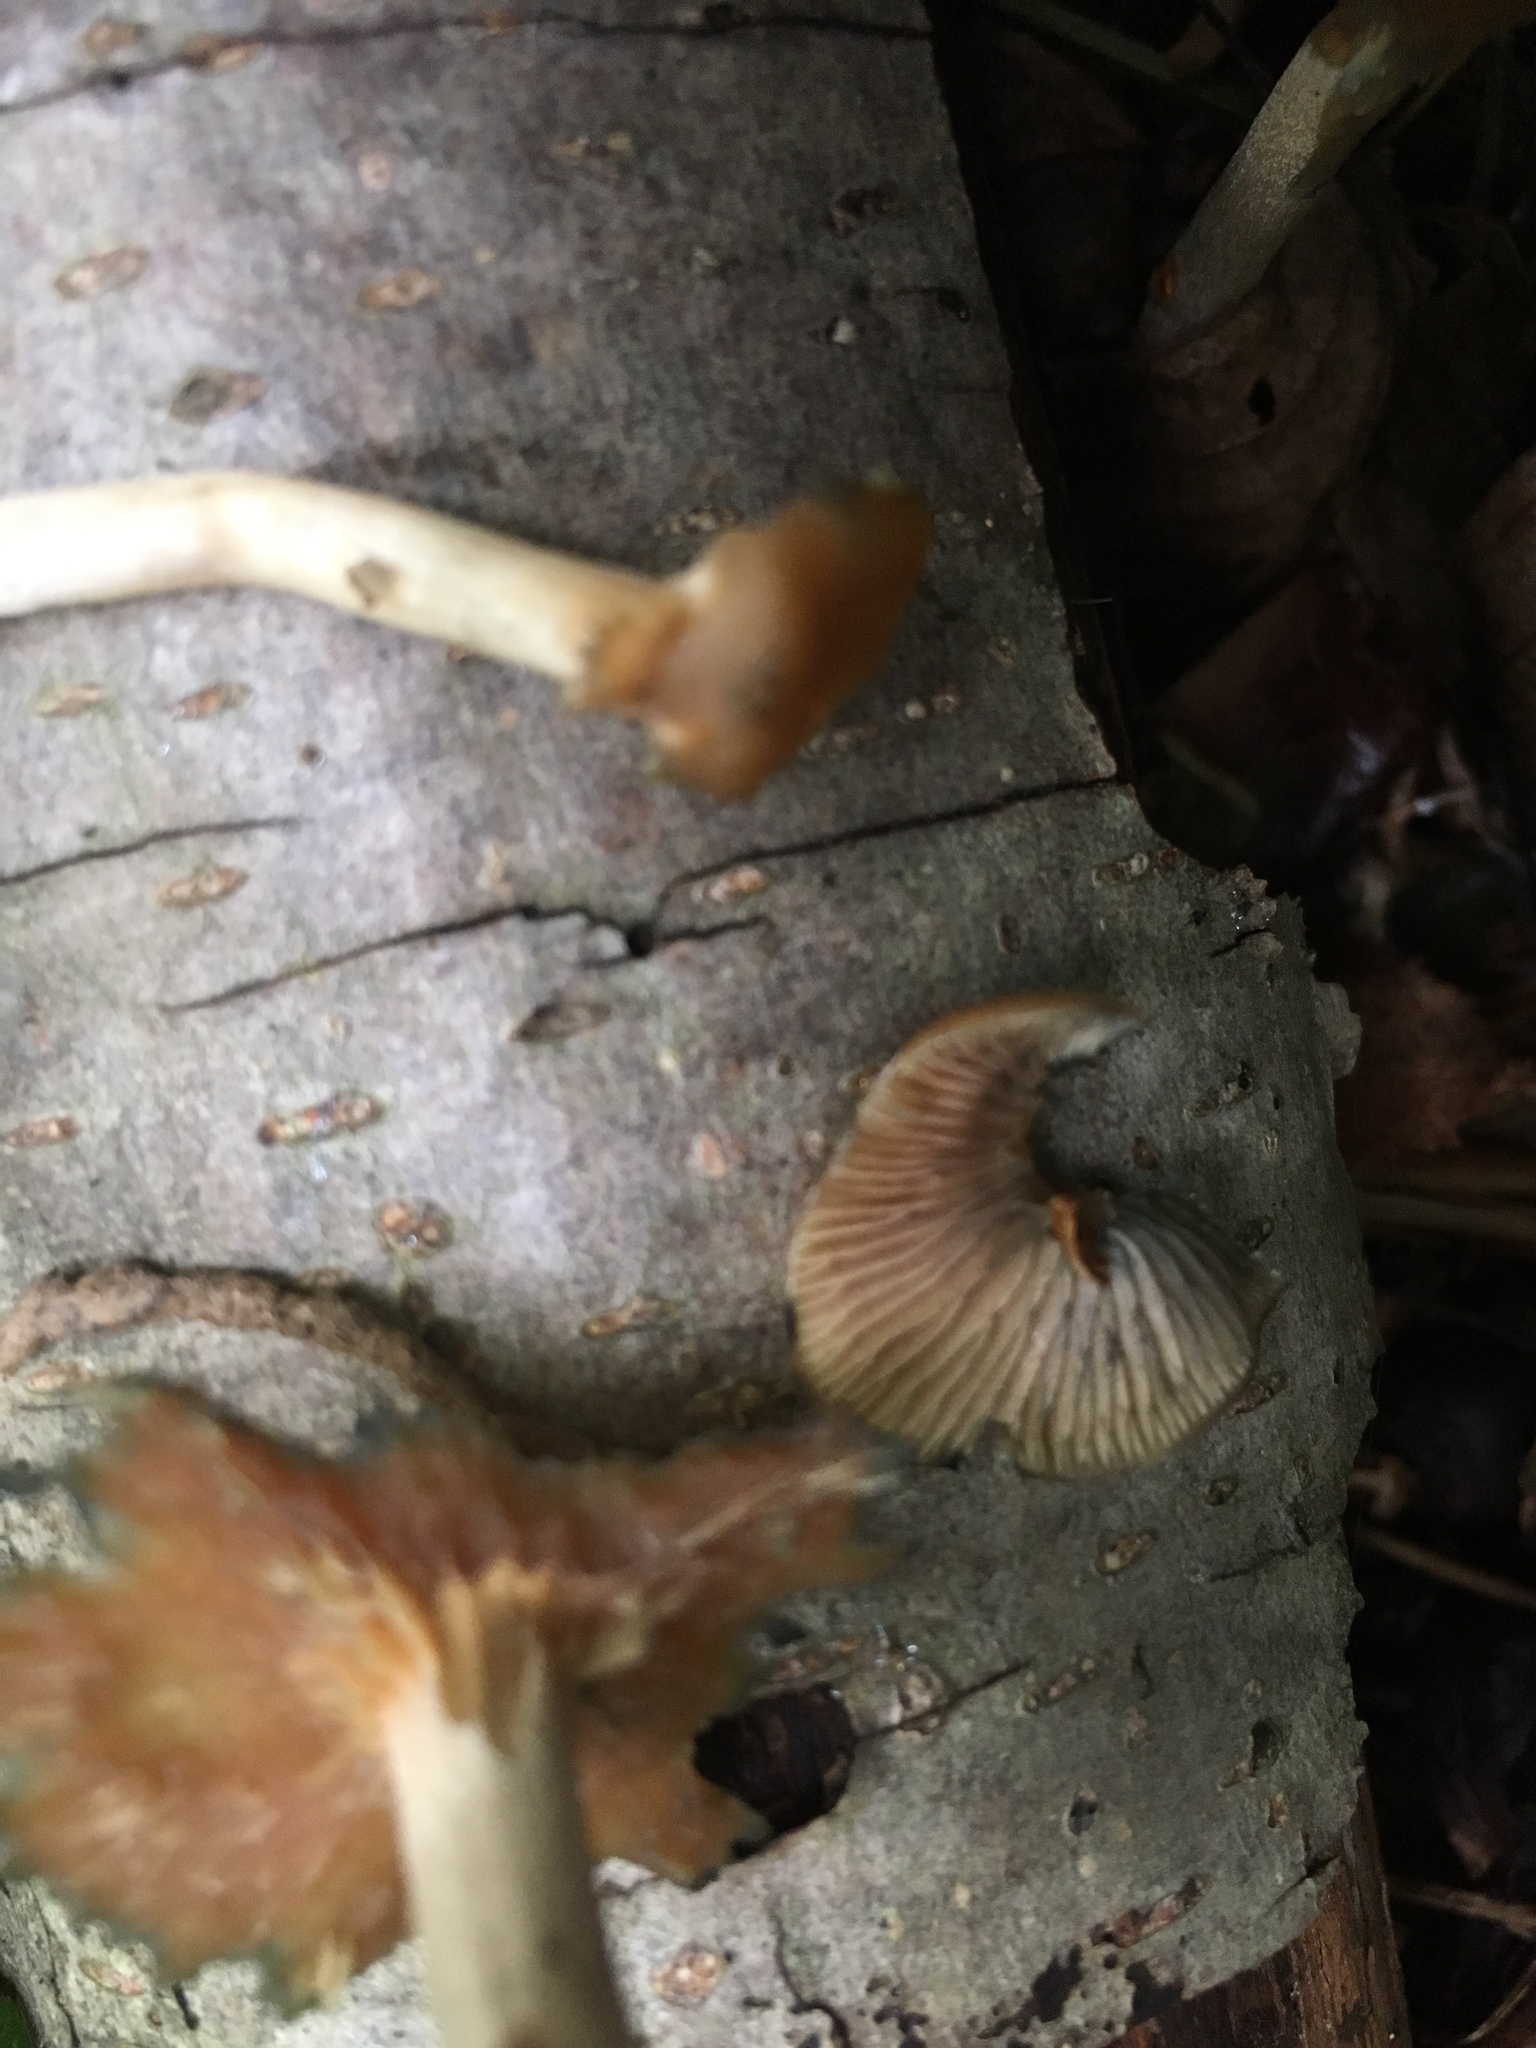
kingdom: Fungi
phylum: Basidiomycota
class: Agaricomycetes
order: Agaricales
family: Hymenogastraceae
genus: Psilocybe
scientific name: Psilocybe cyanescens
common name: Blueleg brownie
